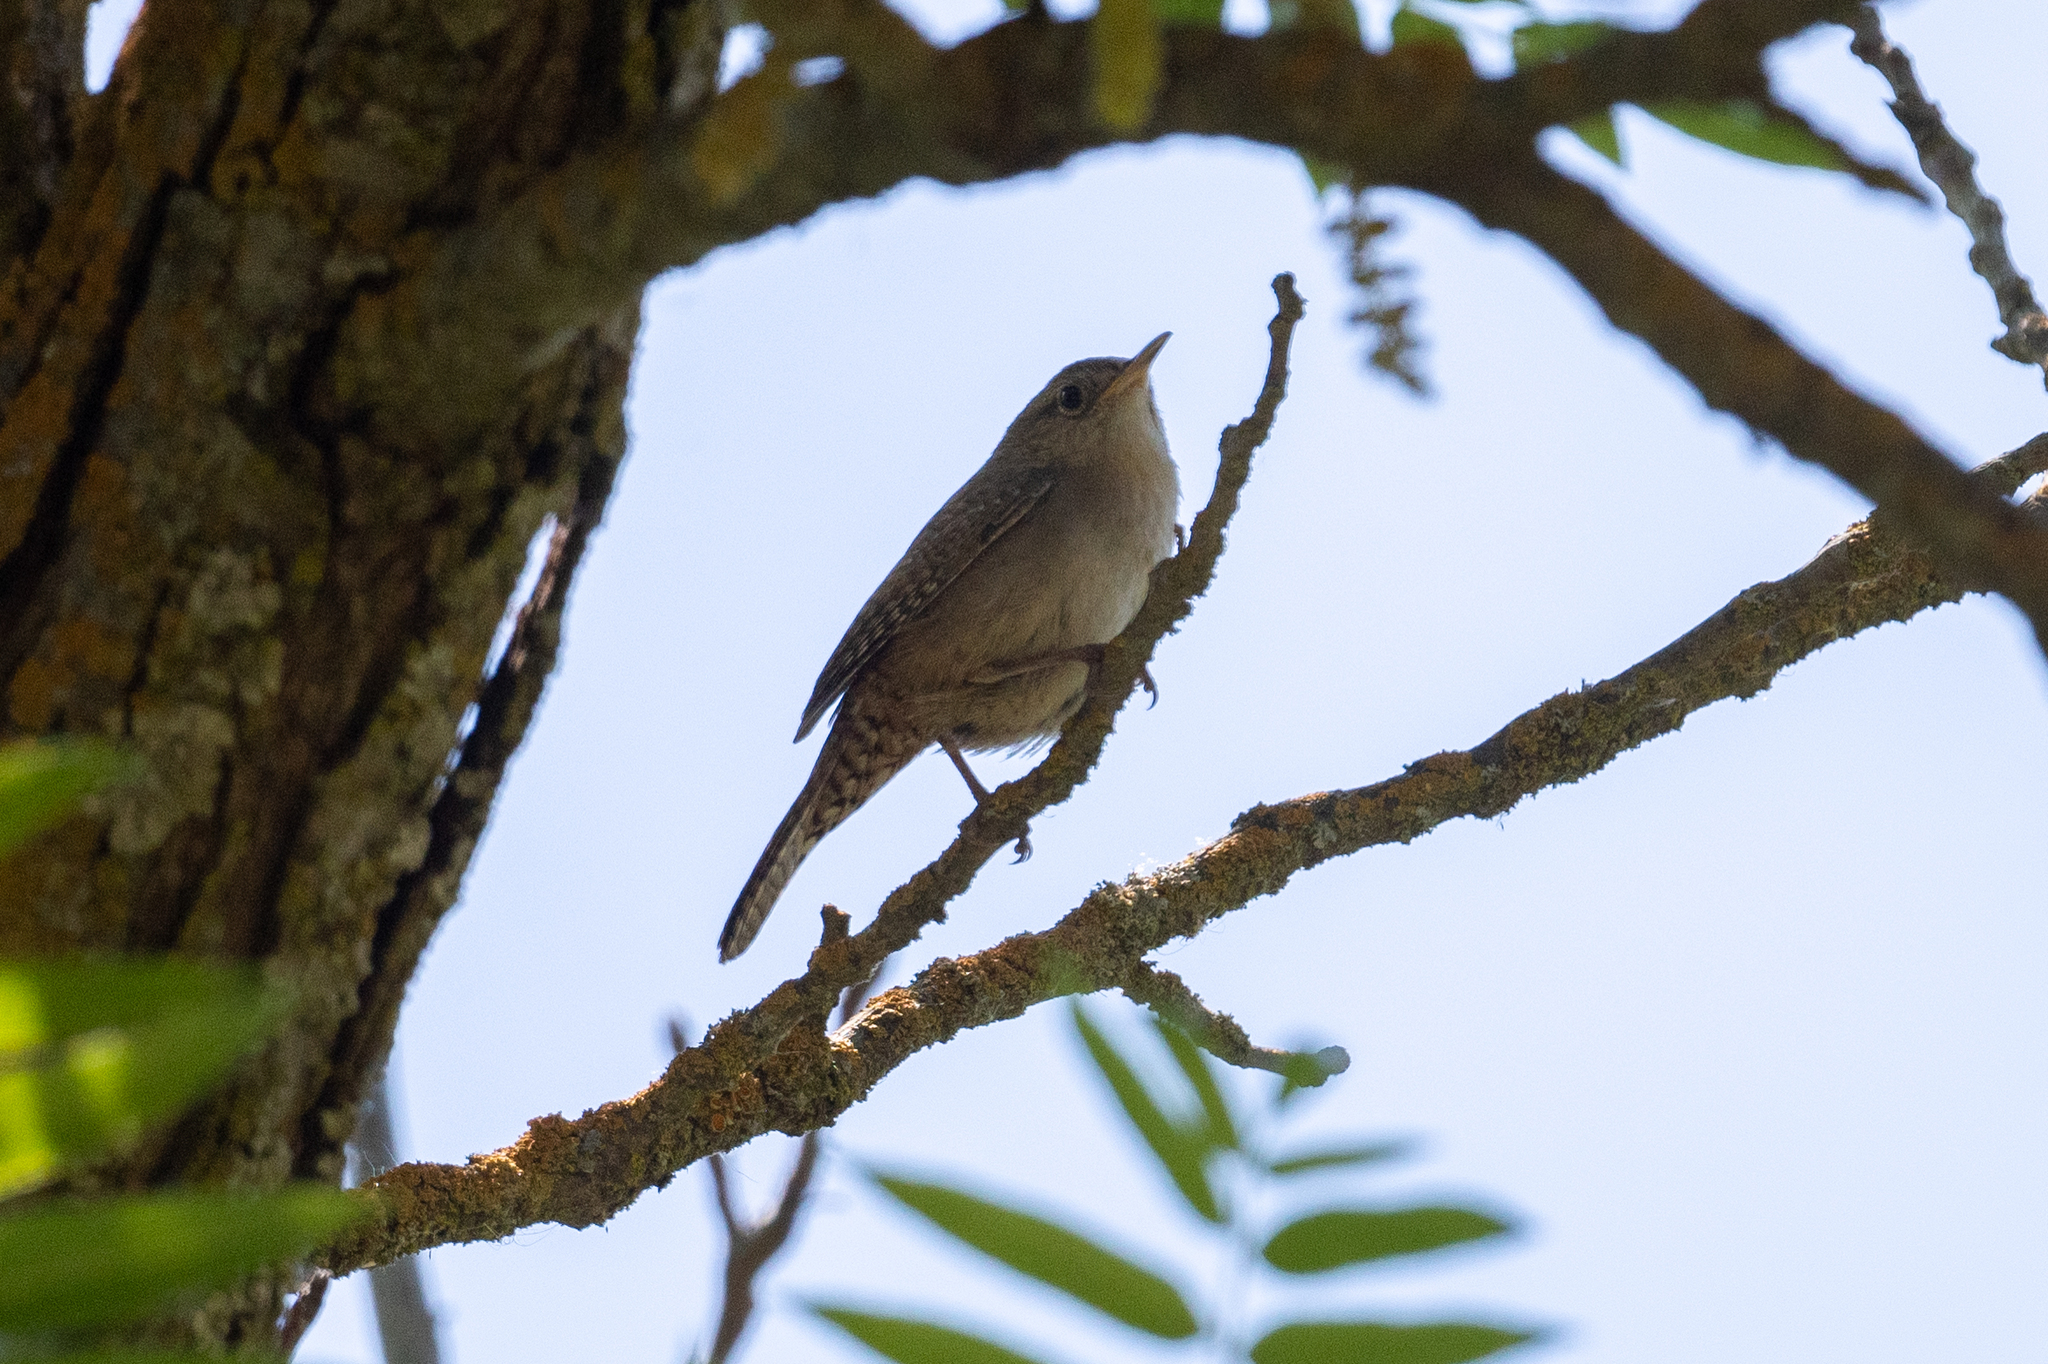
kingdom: Animalia
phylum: Chordata
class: Aves
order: Passeriformes
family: Troglodytidae
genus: Troglodytes
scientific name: Troglodytes aedon
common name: House wren
